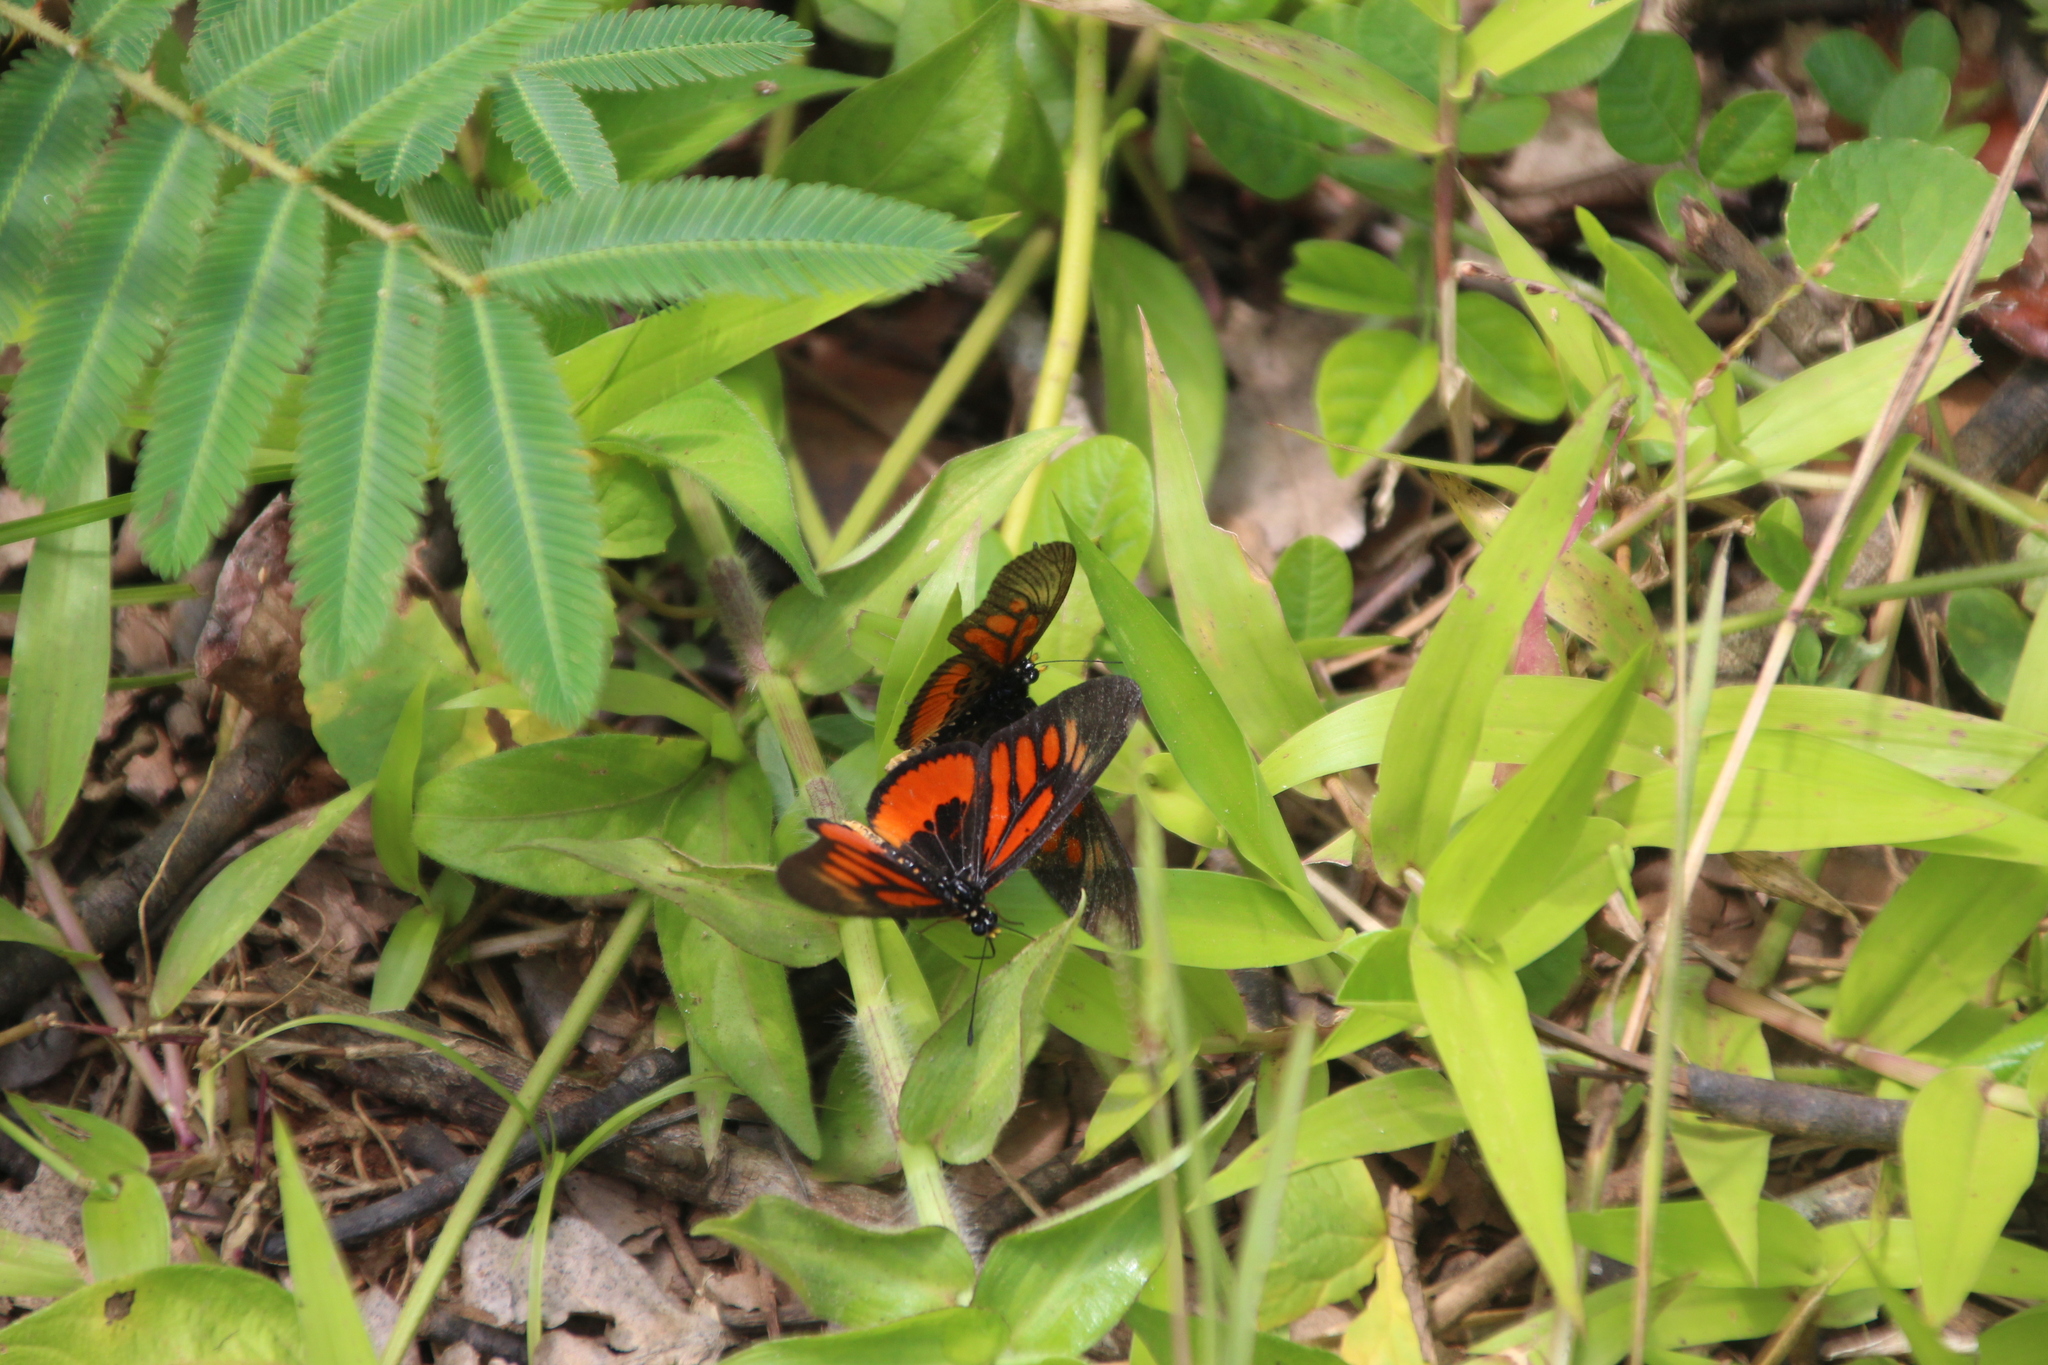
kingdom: Animalia
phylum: Arthropoda
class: Insecta
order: Lepidoptera
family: Nymphalidae
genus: Acraea
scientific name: Acraea
